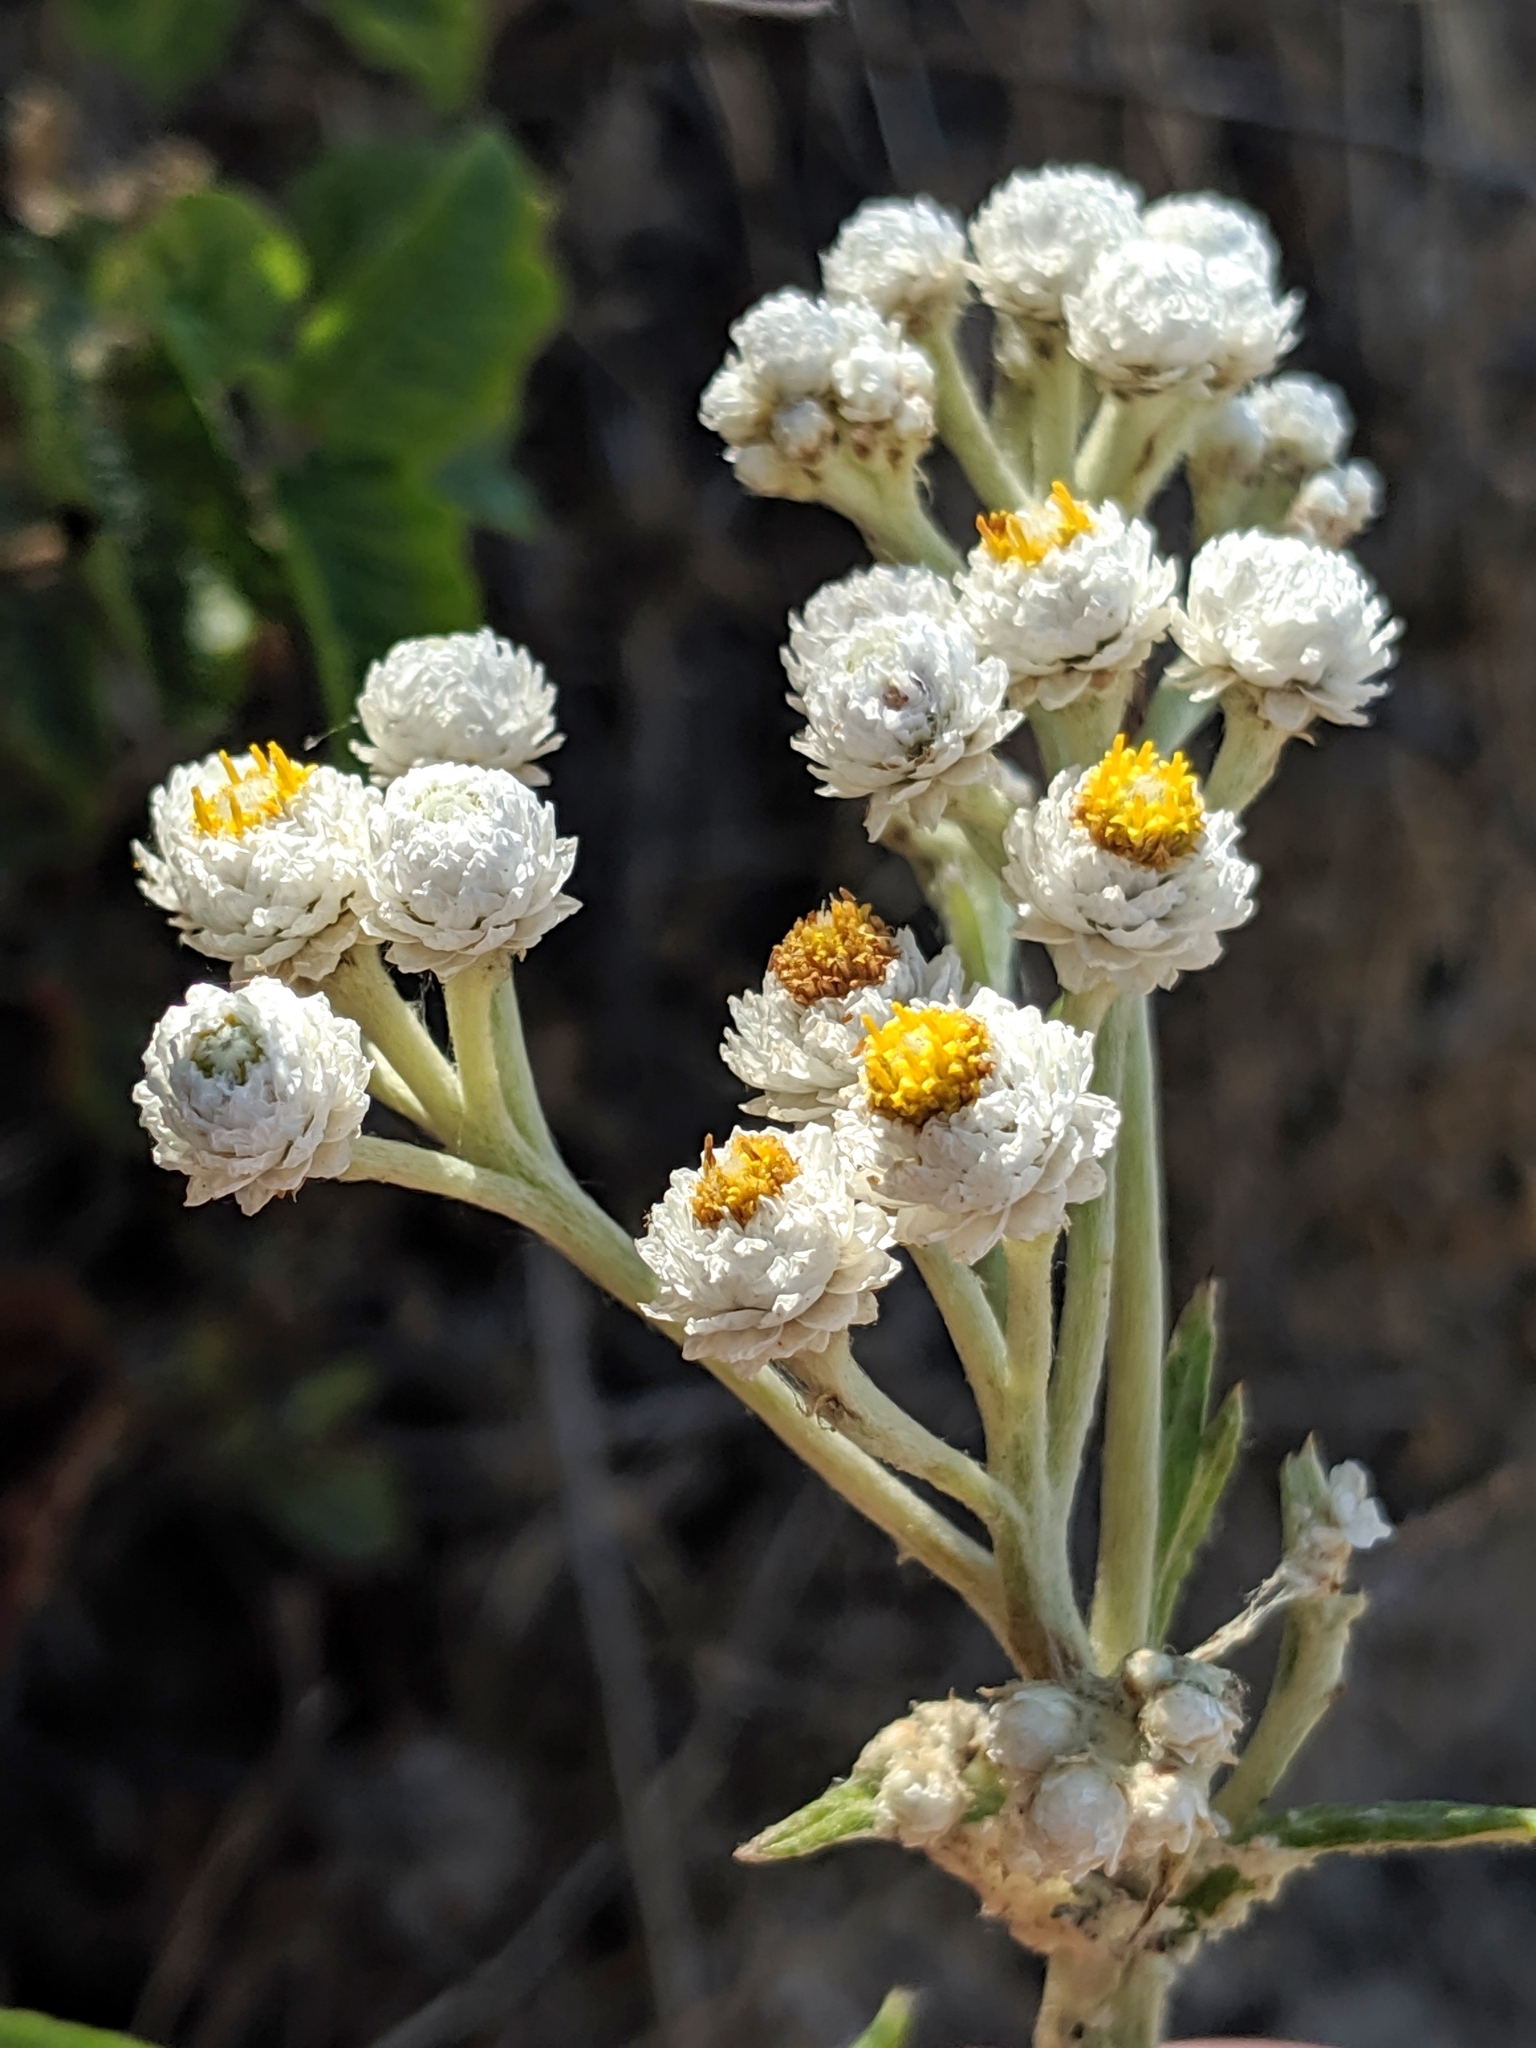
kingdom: Plantae
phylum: Tracheophyta
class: Magnoliopsida
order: Asterales
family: Asteraceae
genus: Anaphalis
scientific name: Anaphalis margaritacea
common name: Pearly everlasting
